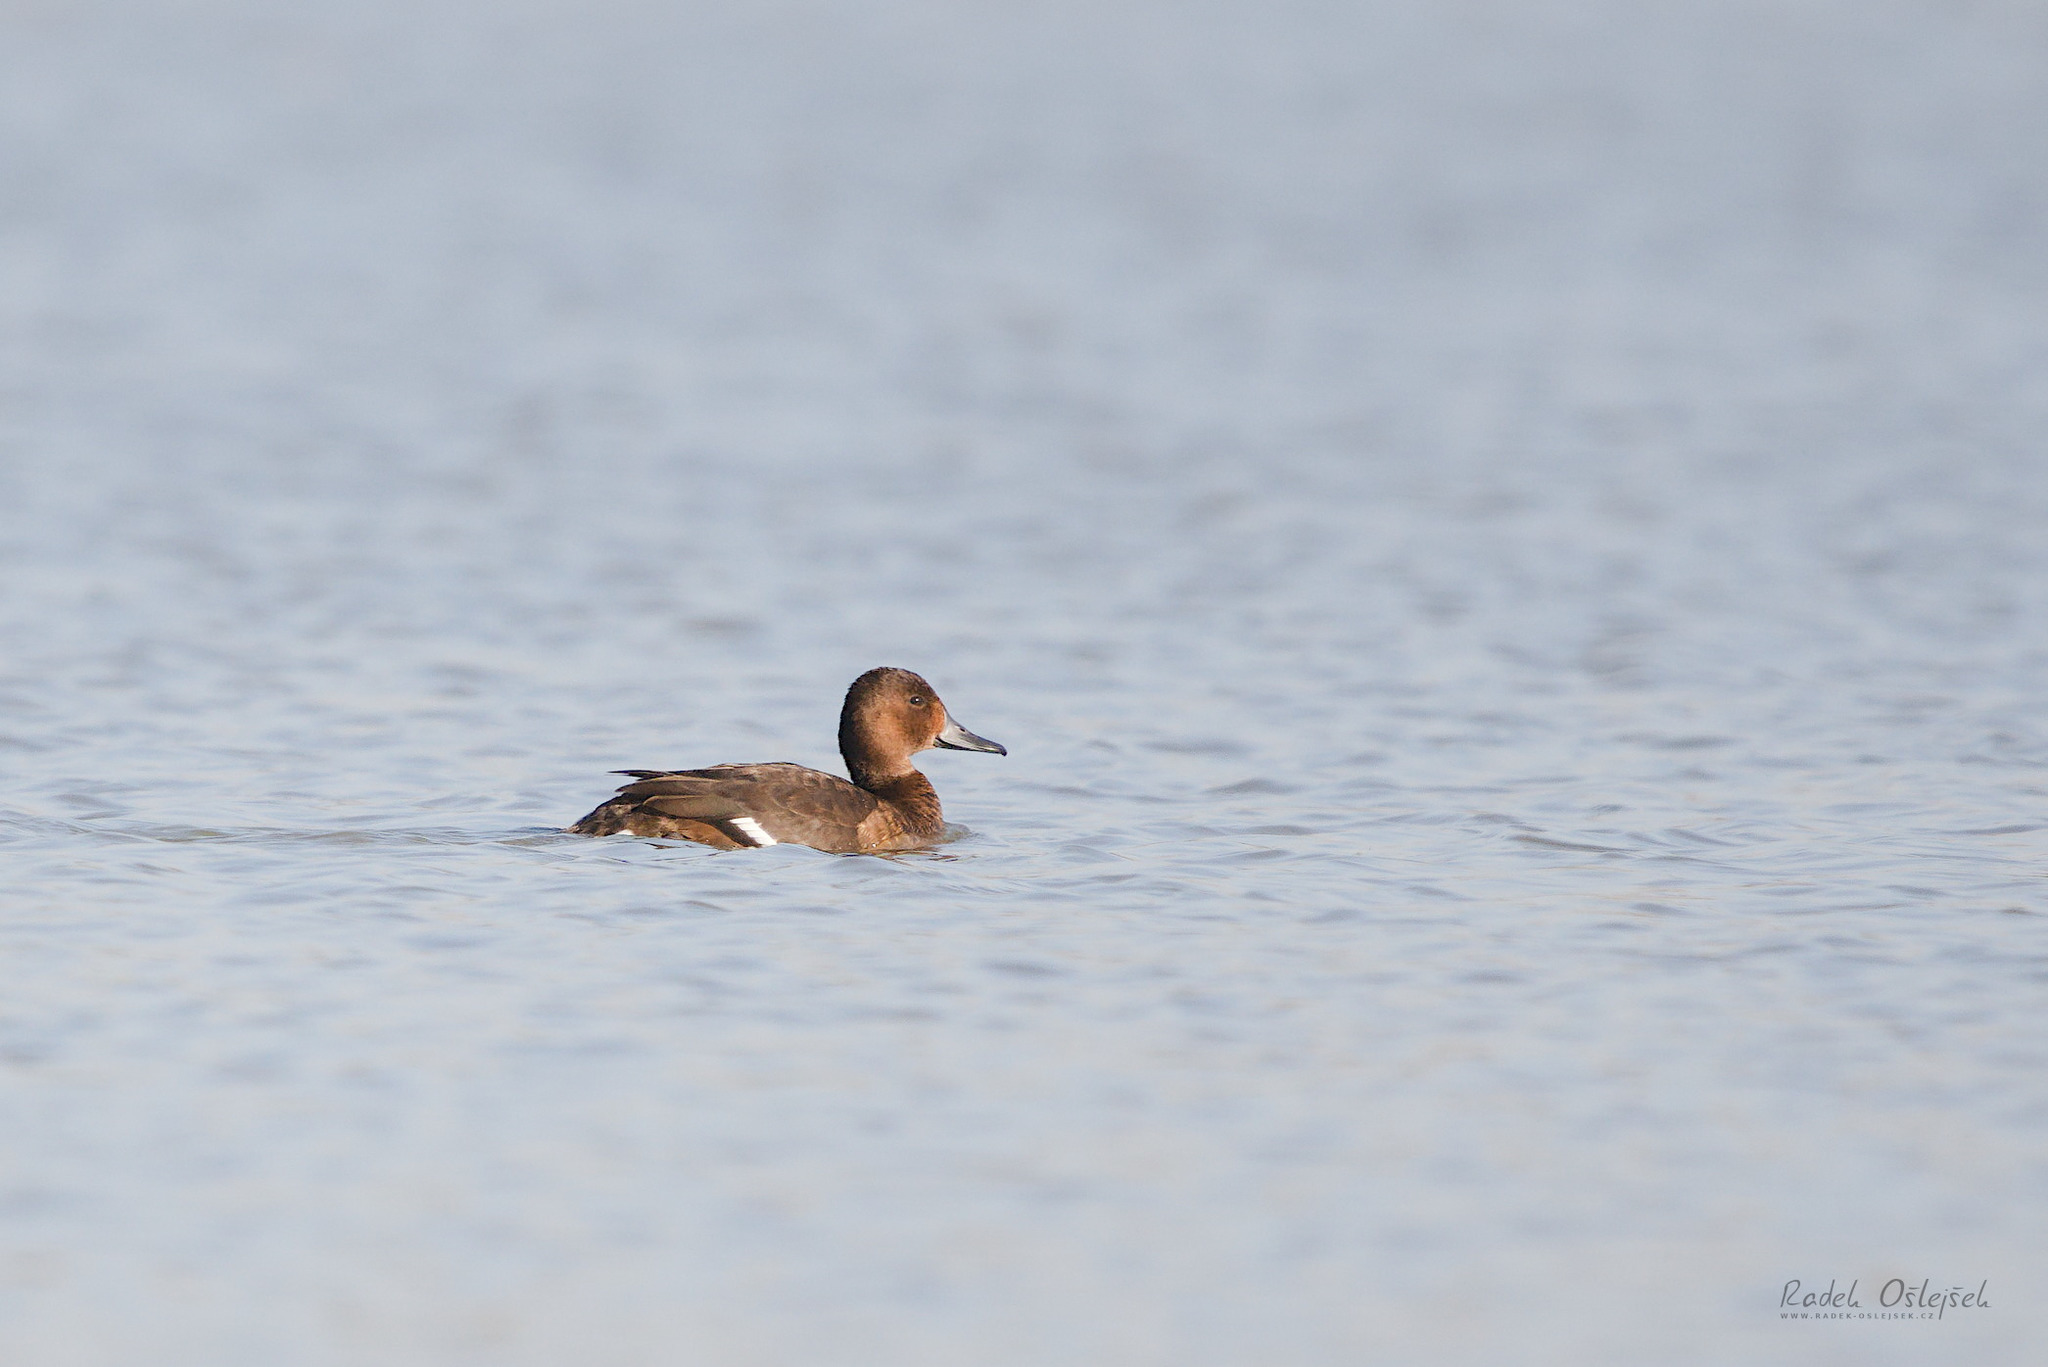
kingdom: Animalia
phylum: Chordata
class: Aves
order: Anseriformes
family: Anatidae
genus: Aythya
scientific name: Aythya nyroca
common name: Ferruginous duck
